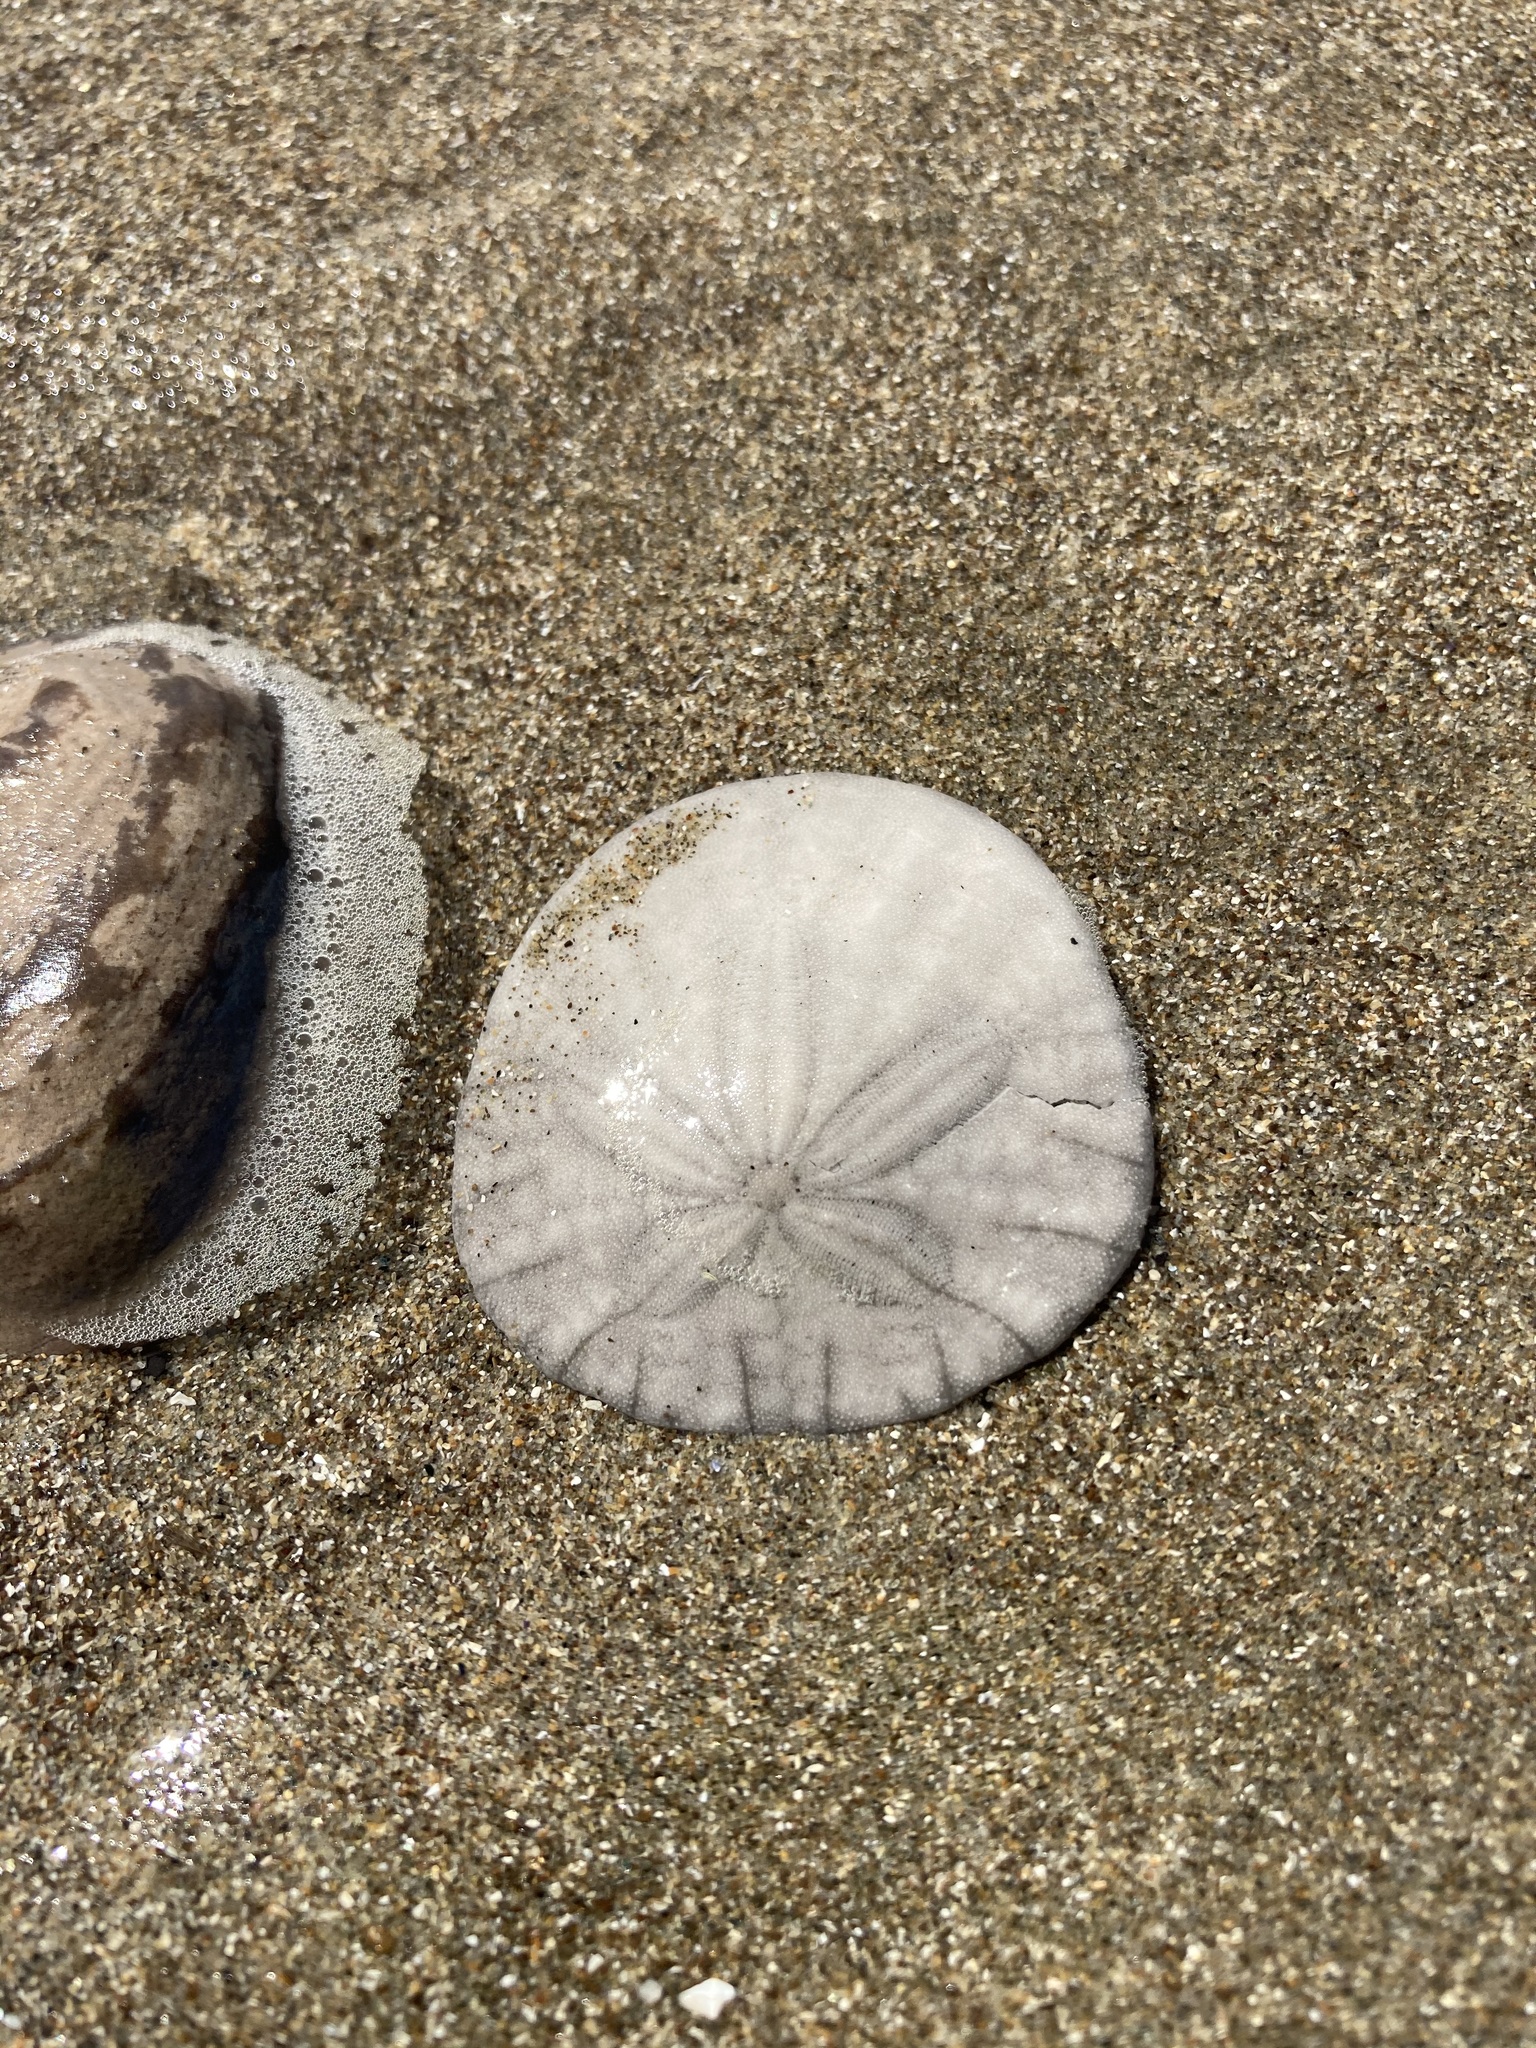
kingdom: Animalia
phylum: Echinodermata
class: Echinoidea
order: Echinolampadacea
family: Dendrasteridae
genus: Dendraster
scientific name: Dendraster excentricus
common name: Eccentric sand dollar sea urchin
